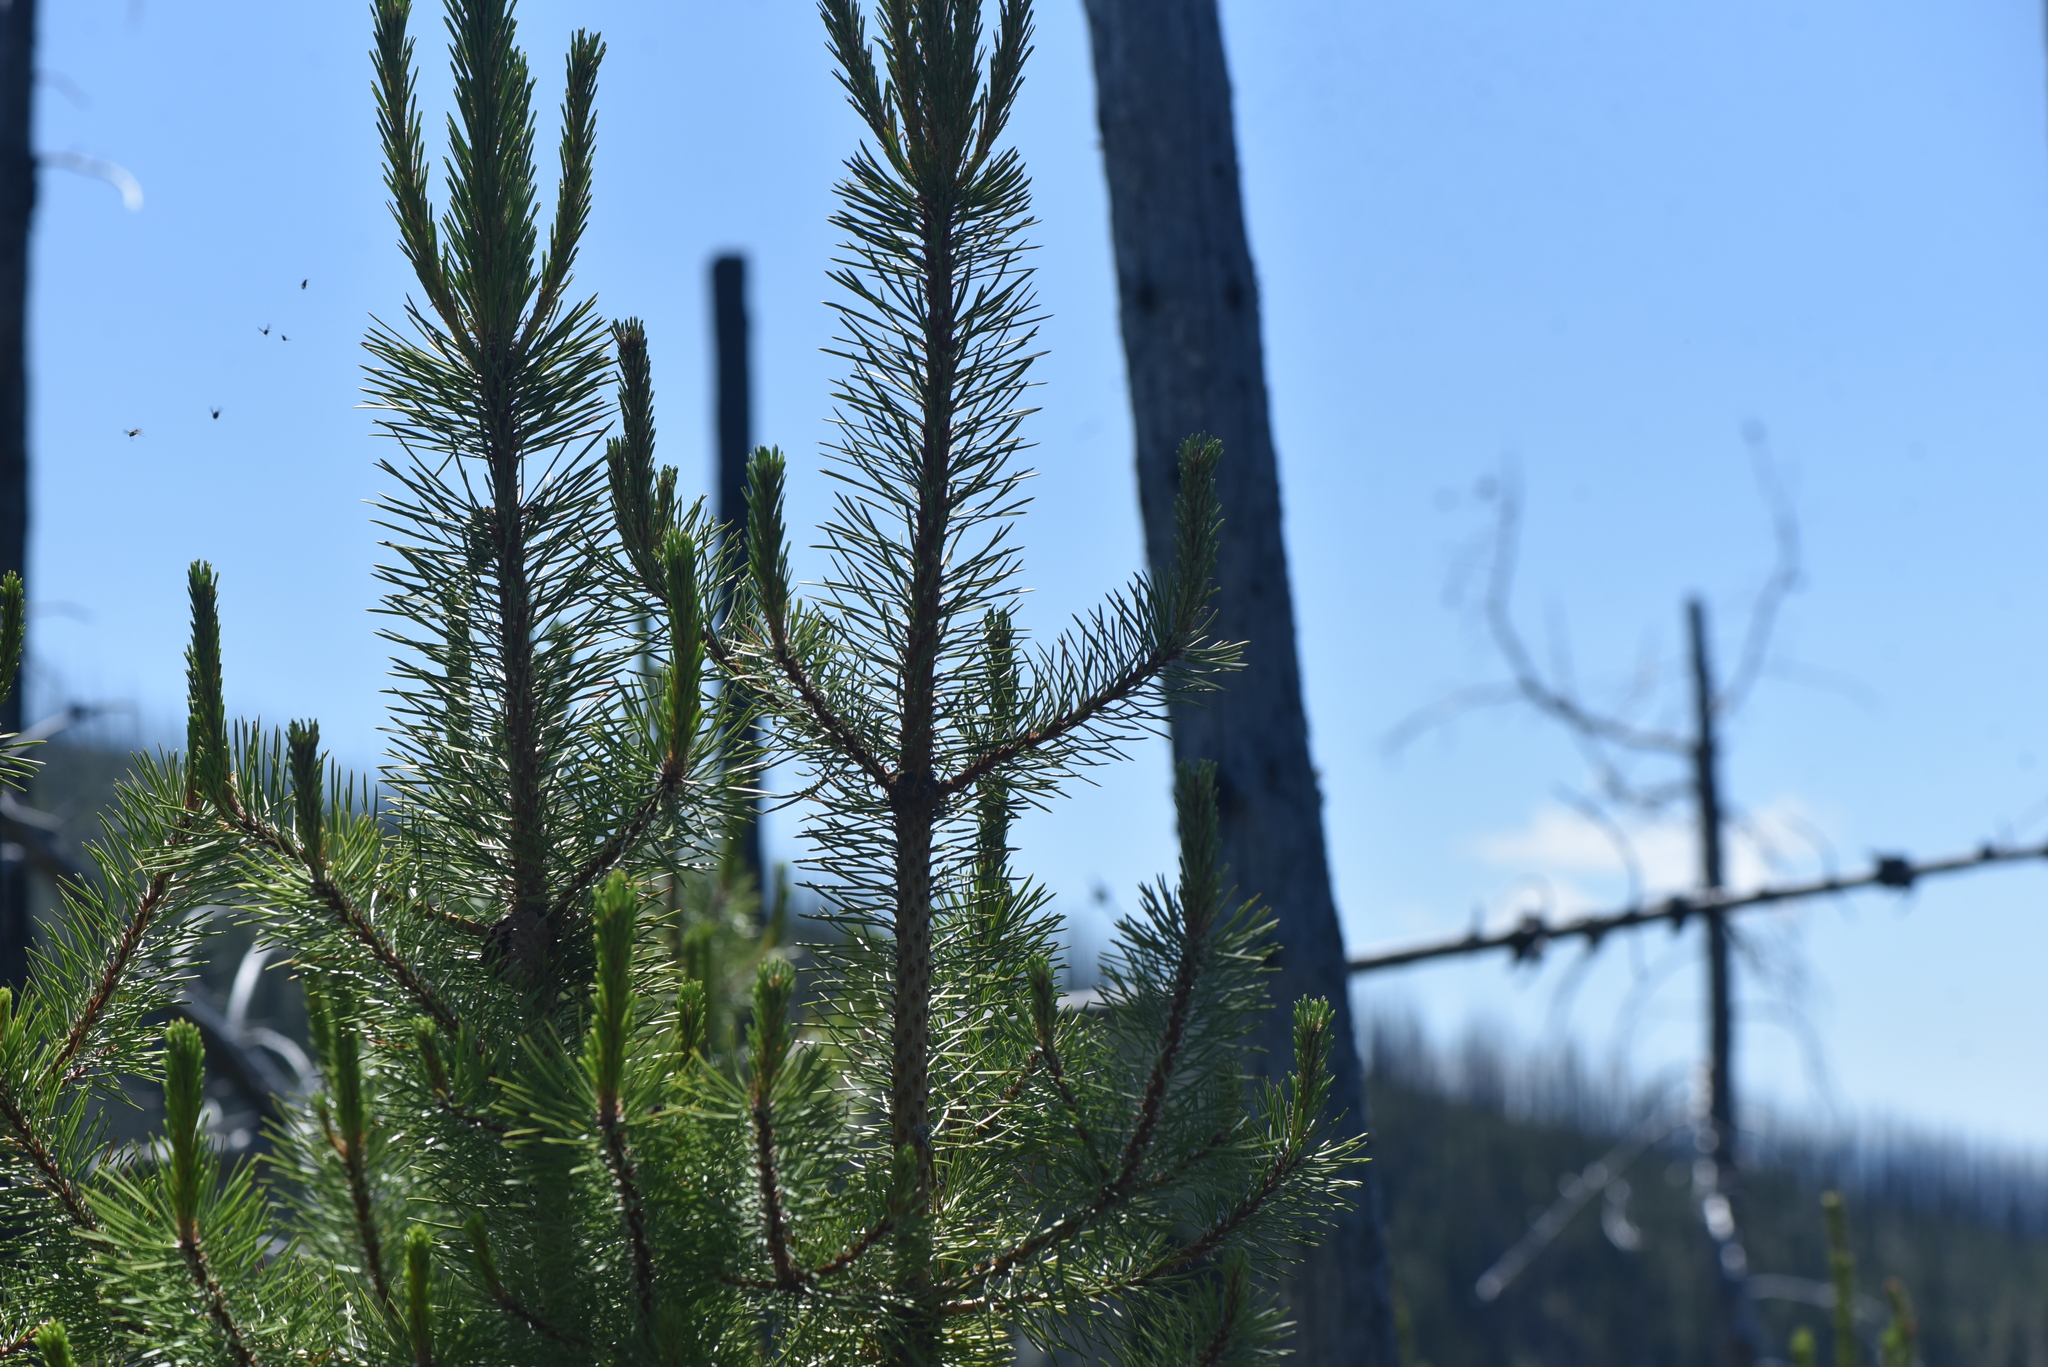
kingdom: Plantae
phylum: Tracheophyta
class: Pinopsida
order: Pinales
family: Pinaceae
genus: Pinus
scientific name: Pinus contorta
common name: Lodgepole pine
